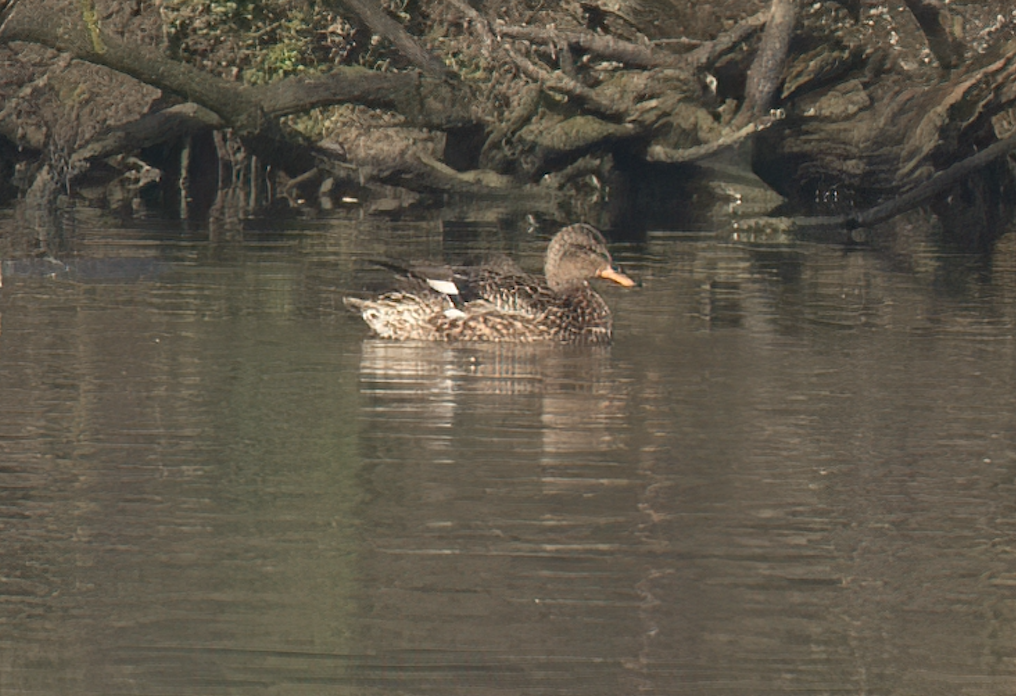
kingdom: Animalia
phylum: Chordata
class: Aves
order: Anseriformes
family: Anatidae
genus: Mareca
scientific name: Mareca strepera
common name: Gadwall
